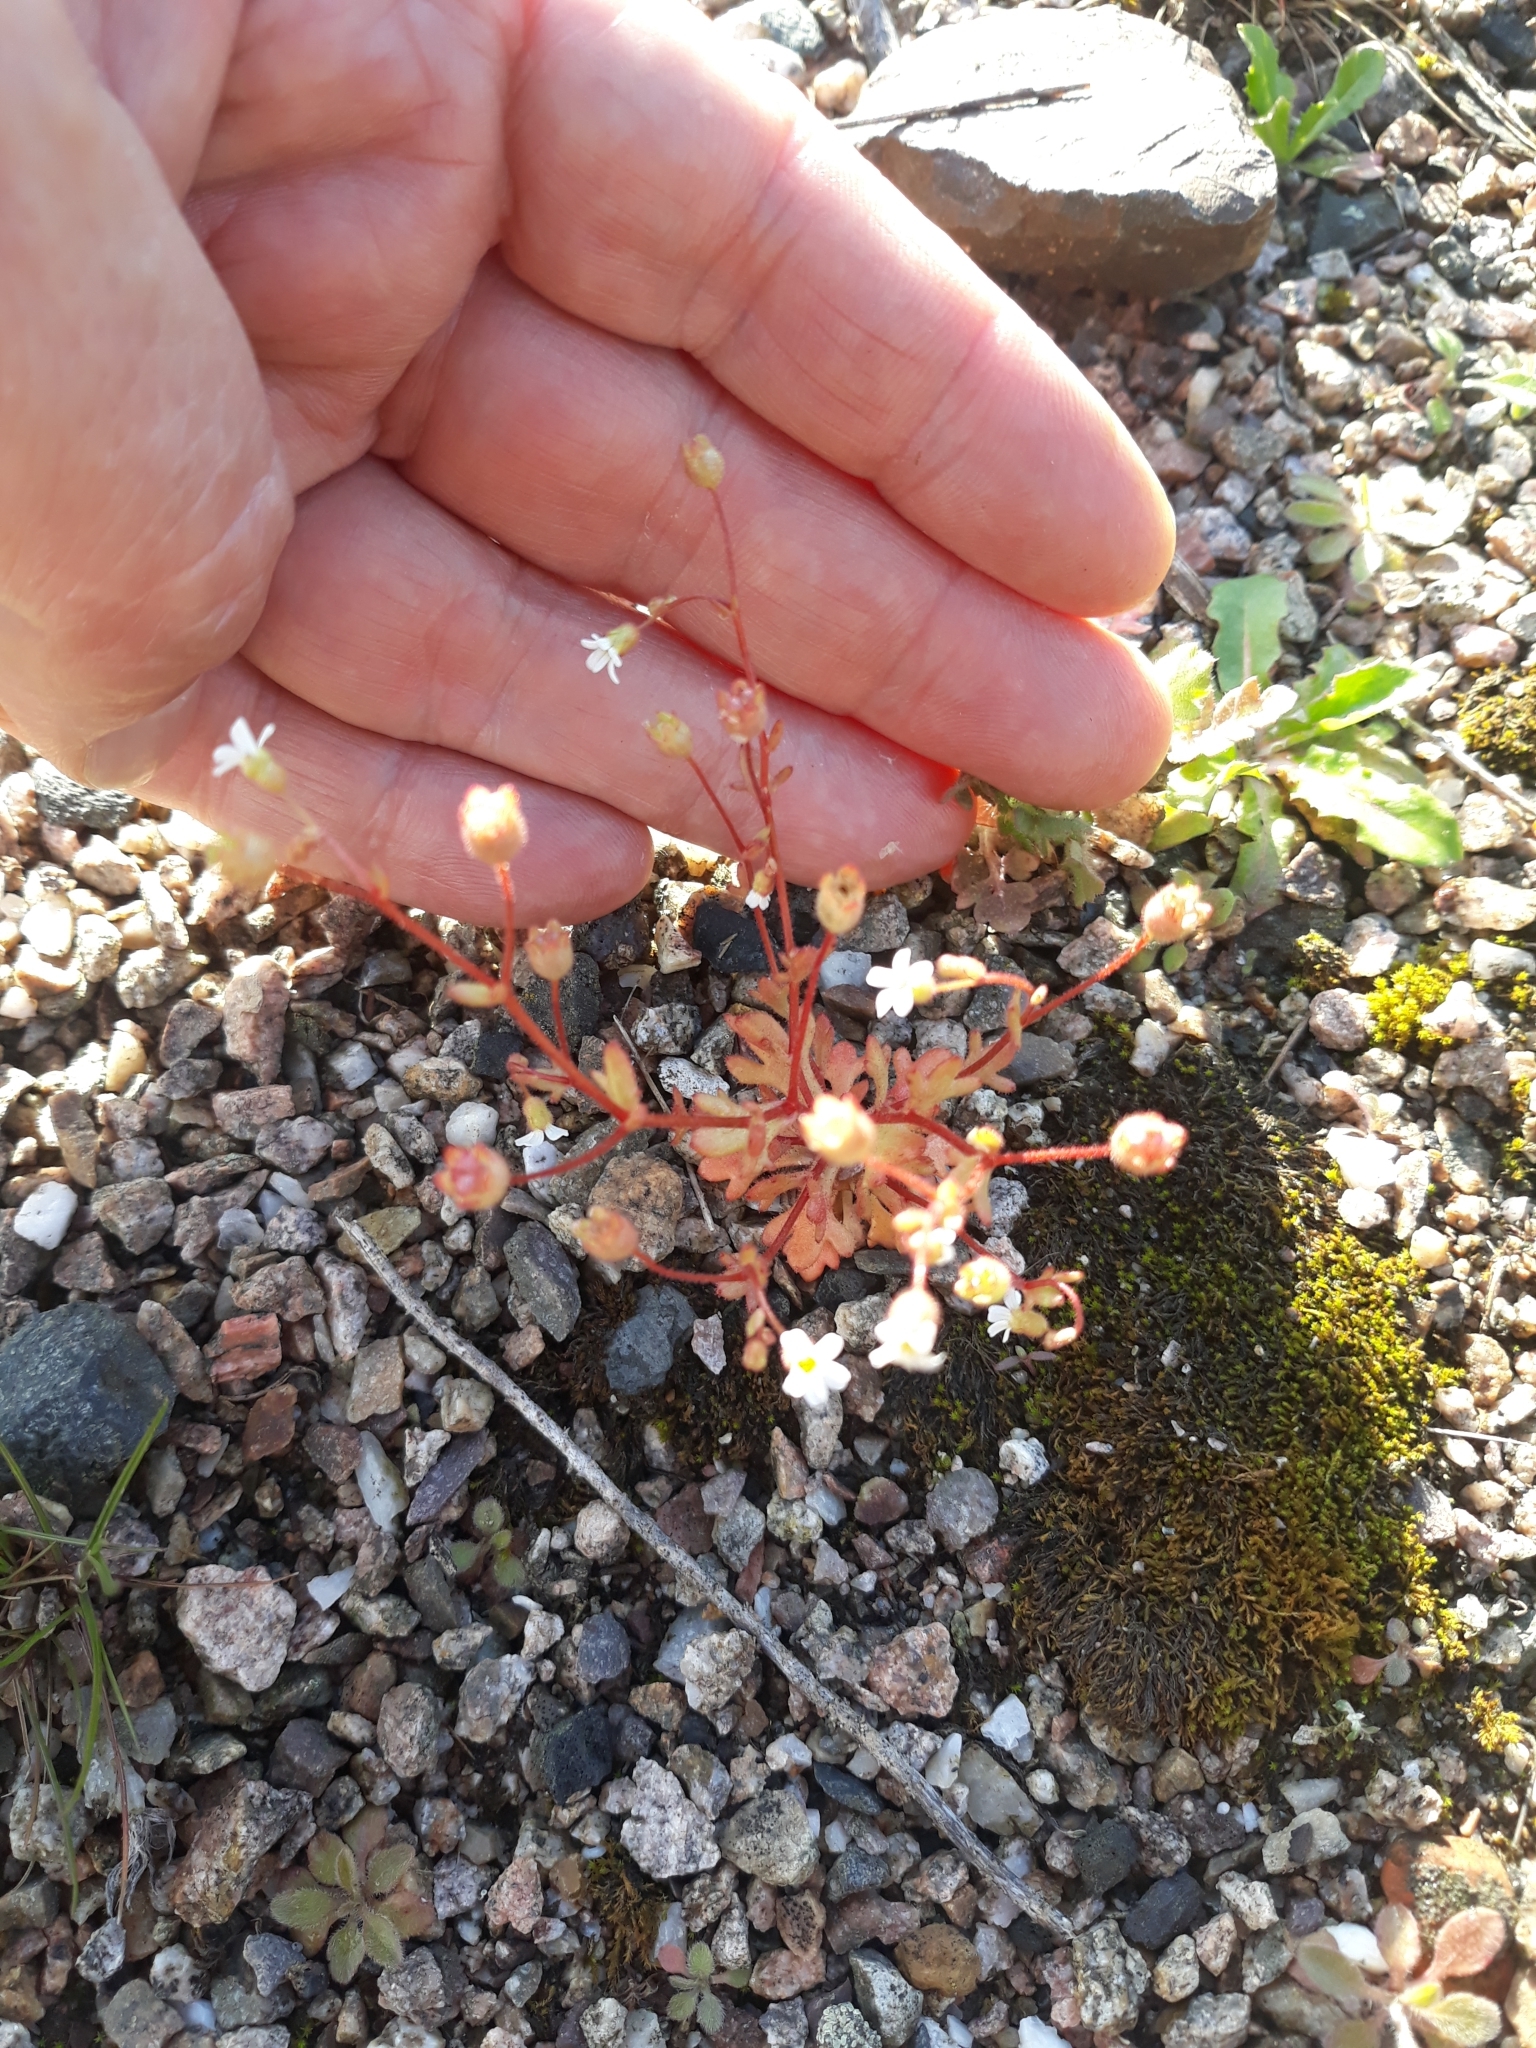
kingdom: Plantae
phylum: Tracheophyta
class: Magnoliopsida
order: Saxifragales
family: Saxifragaceae
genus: Saxifraga
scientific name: Saxifraga tridactylites
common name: Rue-leaved saxifrage
